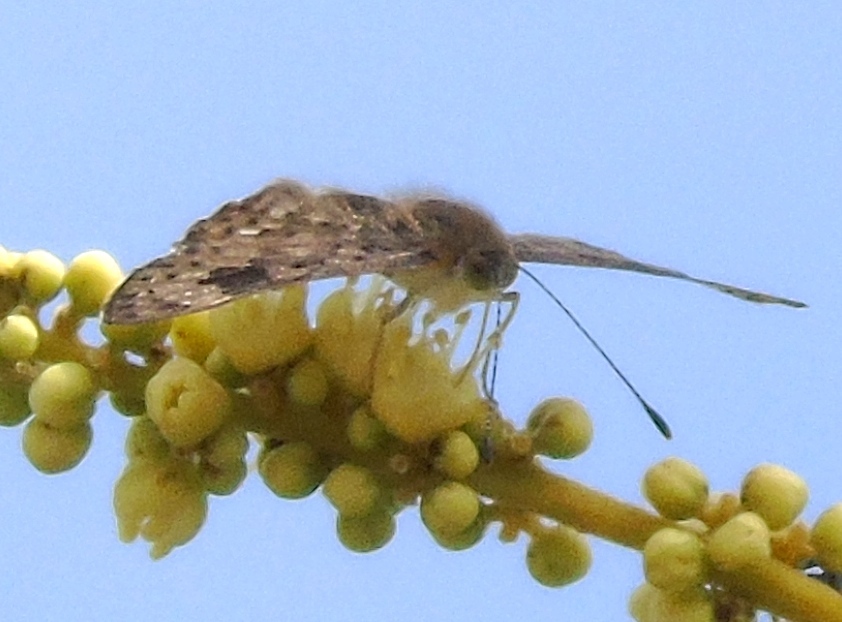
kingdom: Animalia
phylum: Arthropoda
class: Insecta
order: Hymenoptera
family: Braconidae
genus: Apodesmia
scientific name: Apodesmia
